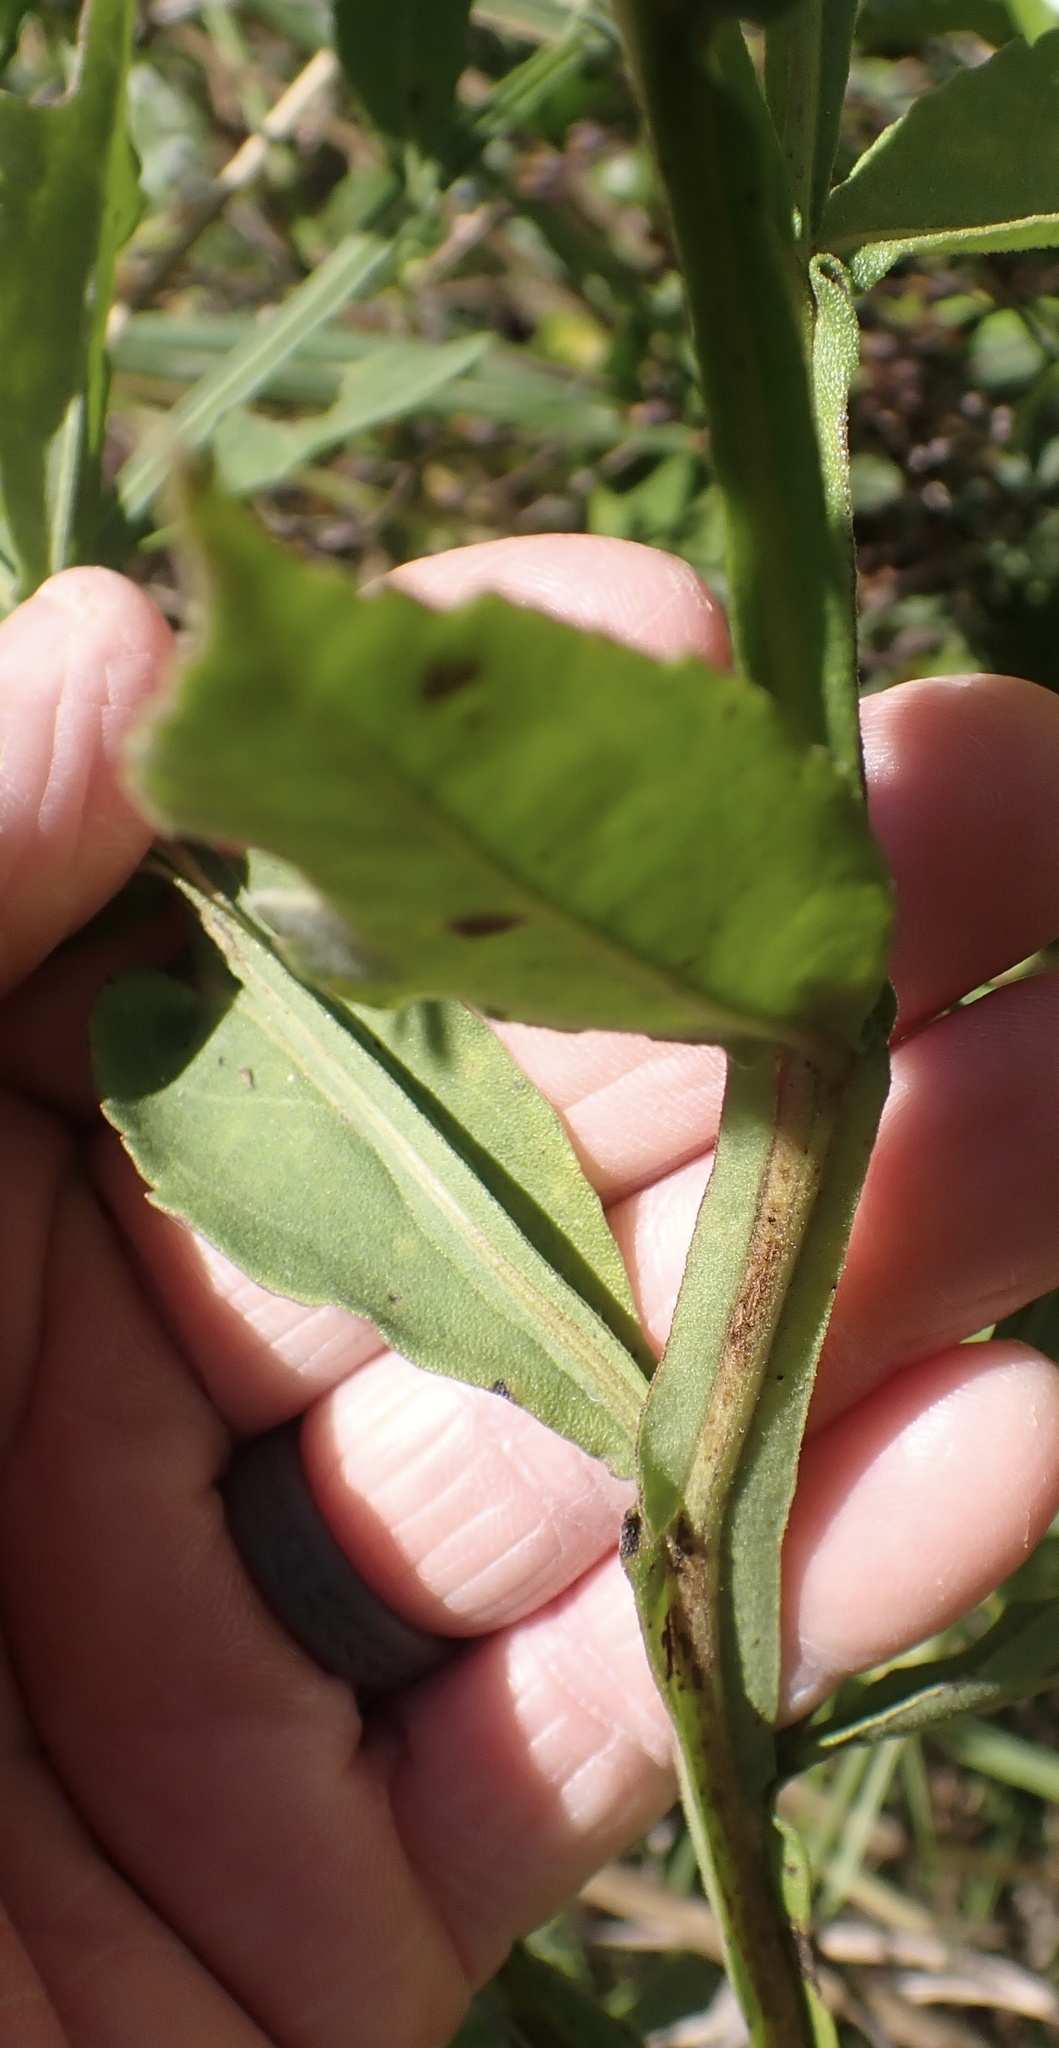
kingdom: Plantae
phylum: Tracheophyta
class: Magnoliopsida
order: Asterales
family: Asteraceae
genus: Helenium
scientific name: Helenium autumnale
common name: Sneezeweed
